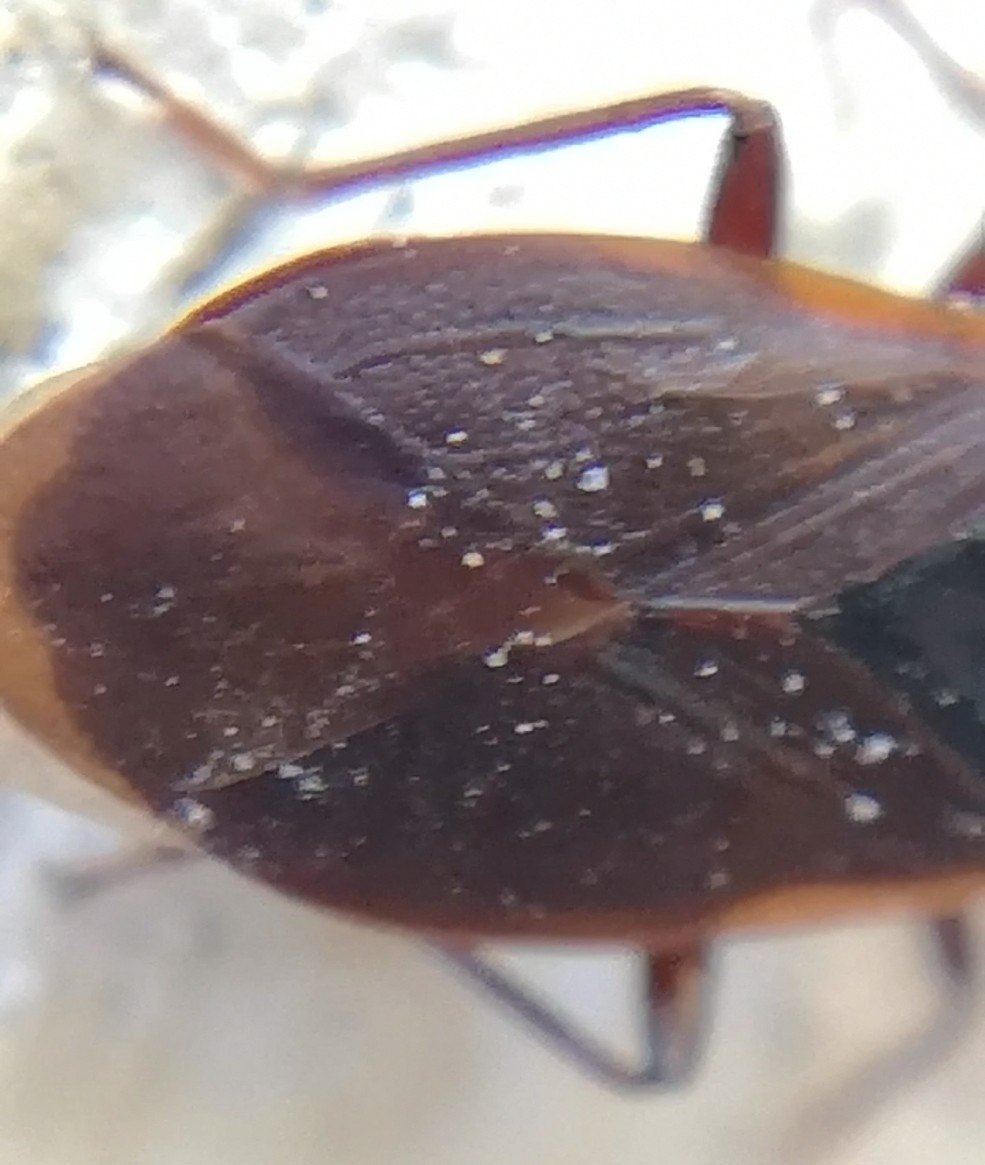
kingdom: Animalia
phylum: Arthropoda
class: Insecta
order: Hemiptera
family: Rhyparochromidae
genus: Gastrodes
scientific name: Gastrodes grossipes
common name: Pine cone bug
